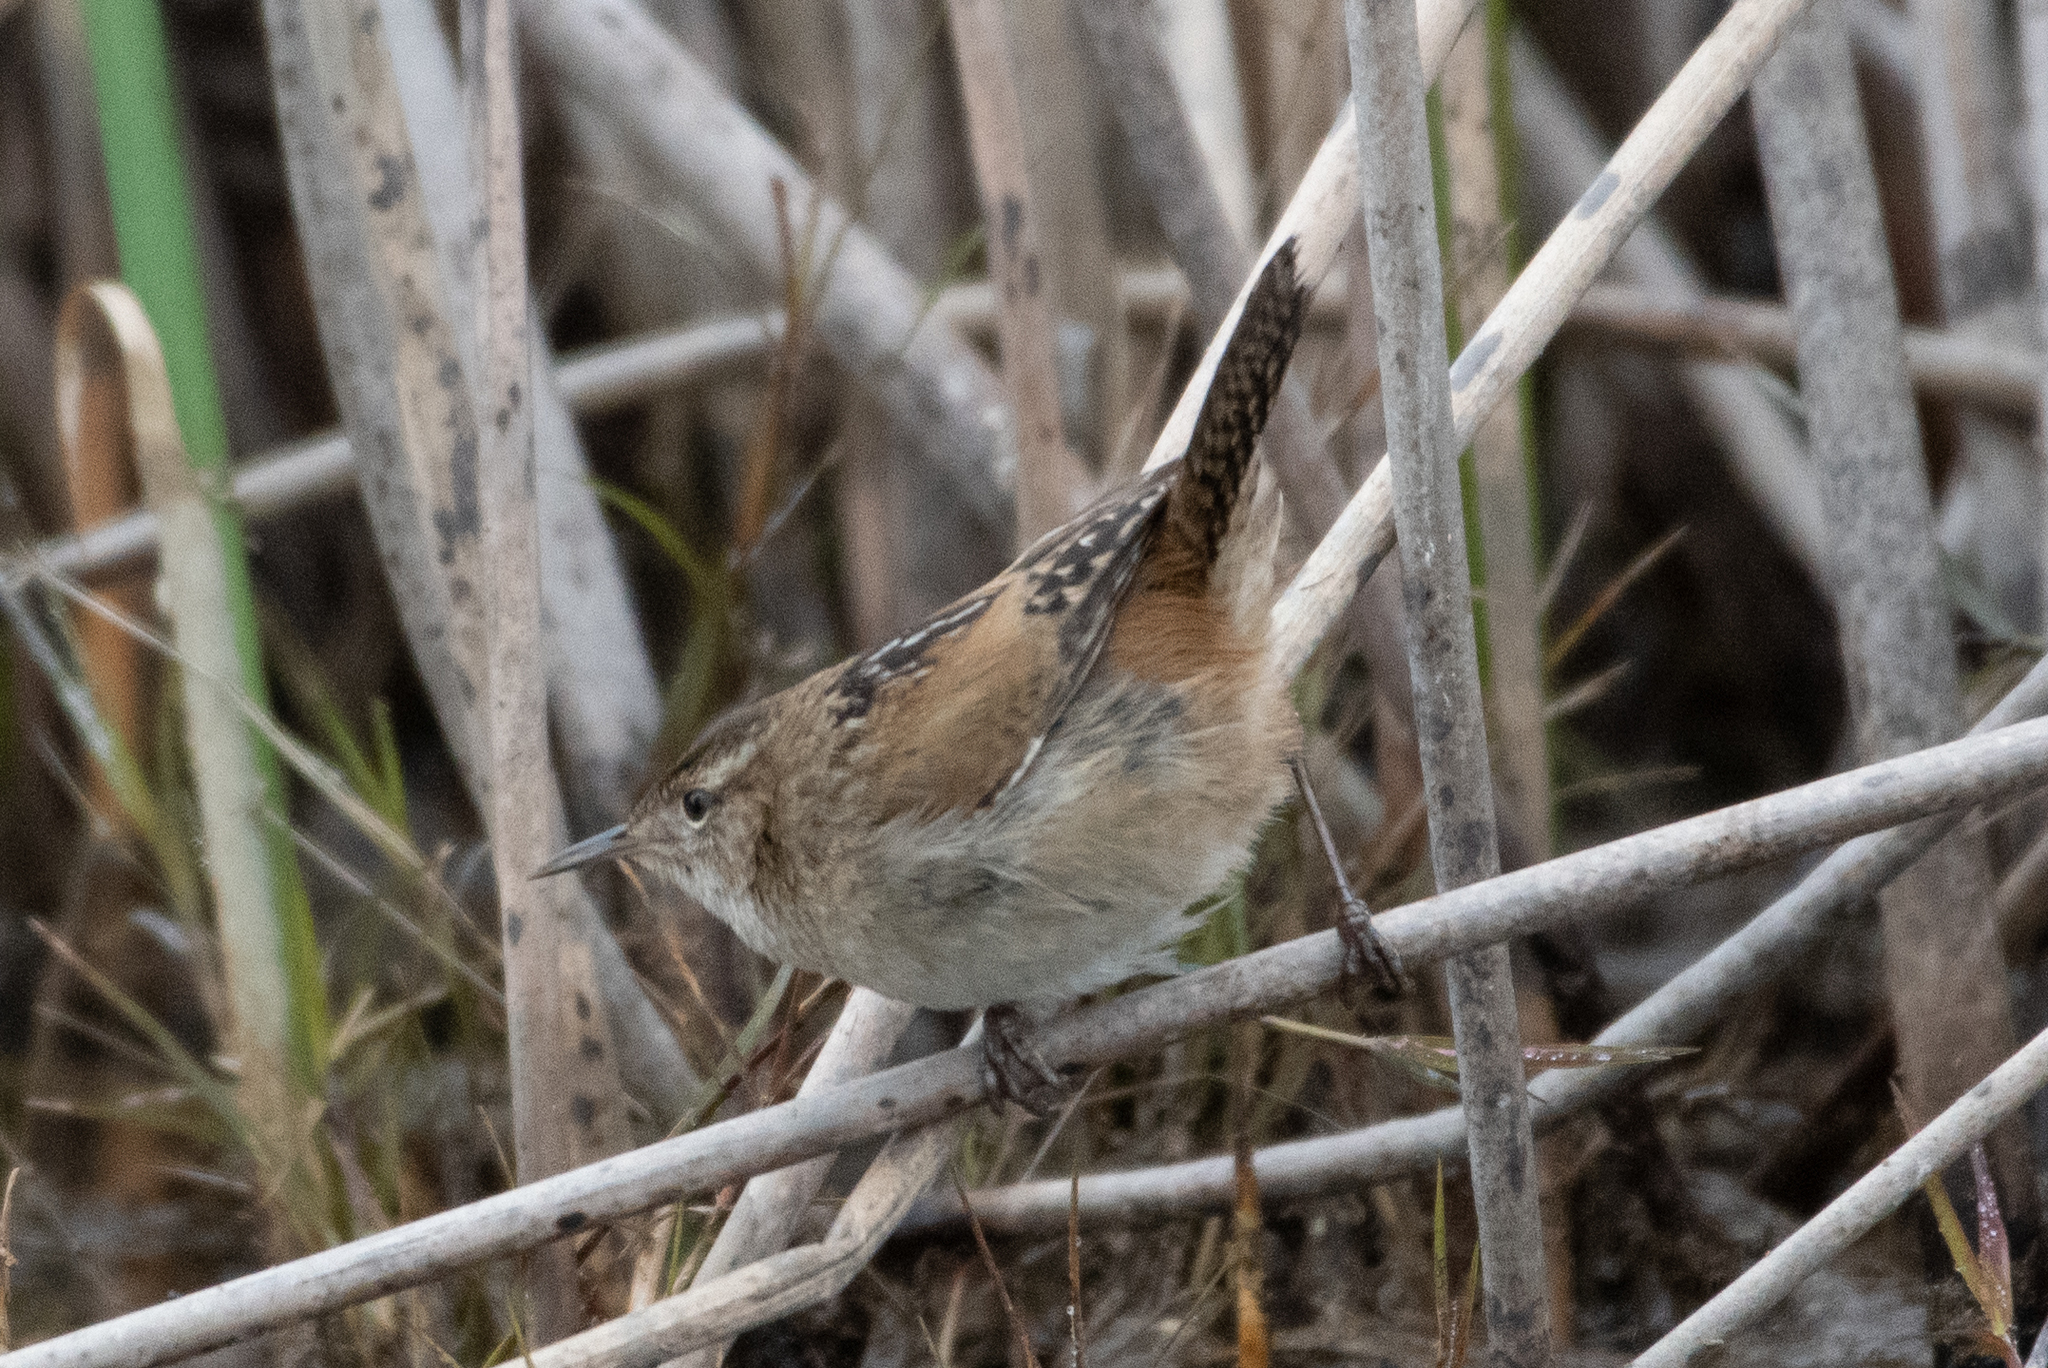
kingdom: Animalia
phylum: Chordata
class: Aves
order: Passeriformes
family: Troglodytidae
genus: Cistothorus
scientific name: Cistothorus palustris
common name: Marsh wren
